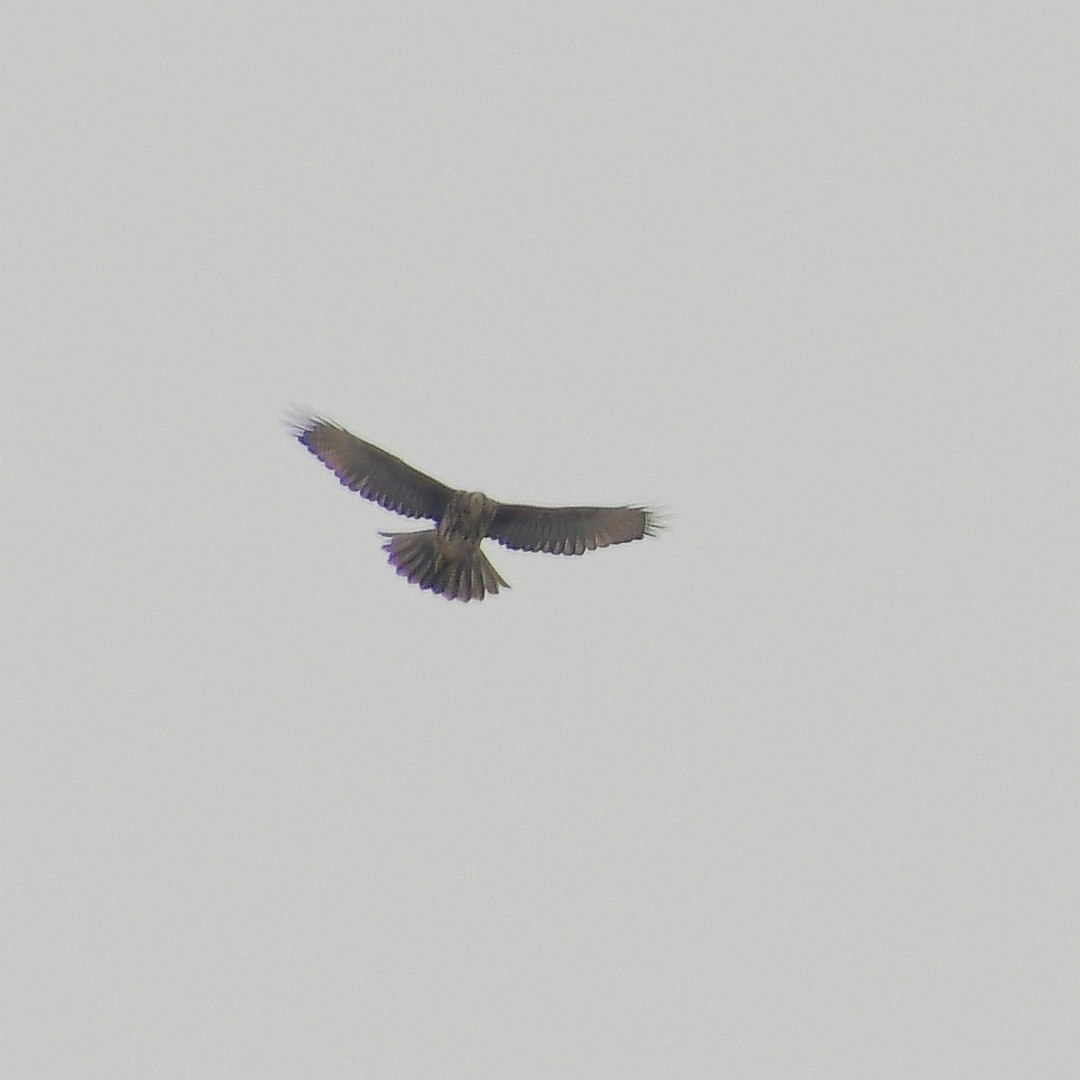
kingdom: Animalia
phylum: Chordata
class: Aves
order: Accipitriformes
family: Accipitridae
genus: Parabuteo
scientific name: Parabuteo unicinctus
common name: Harris's hawk
